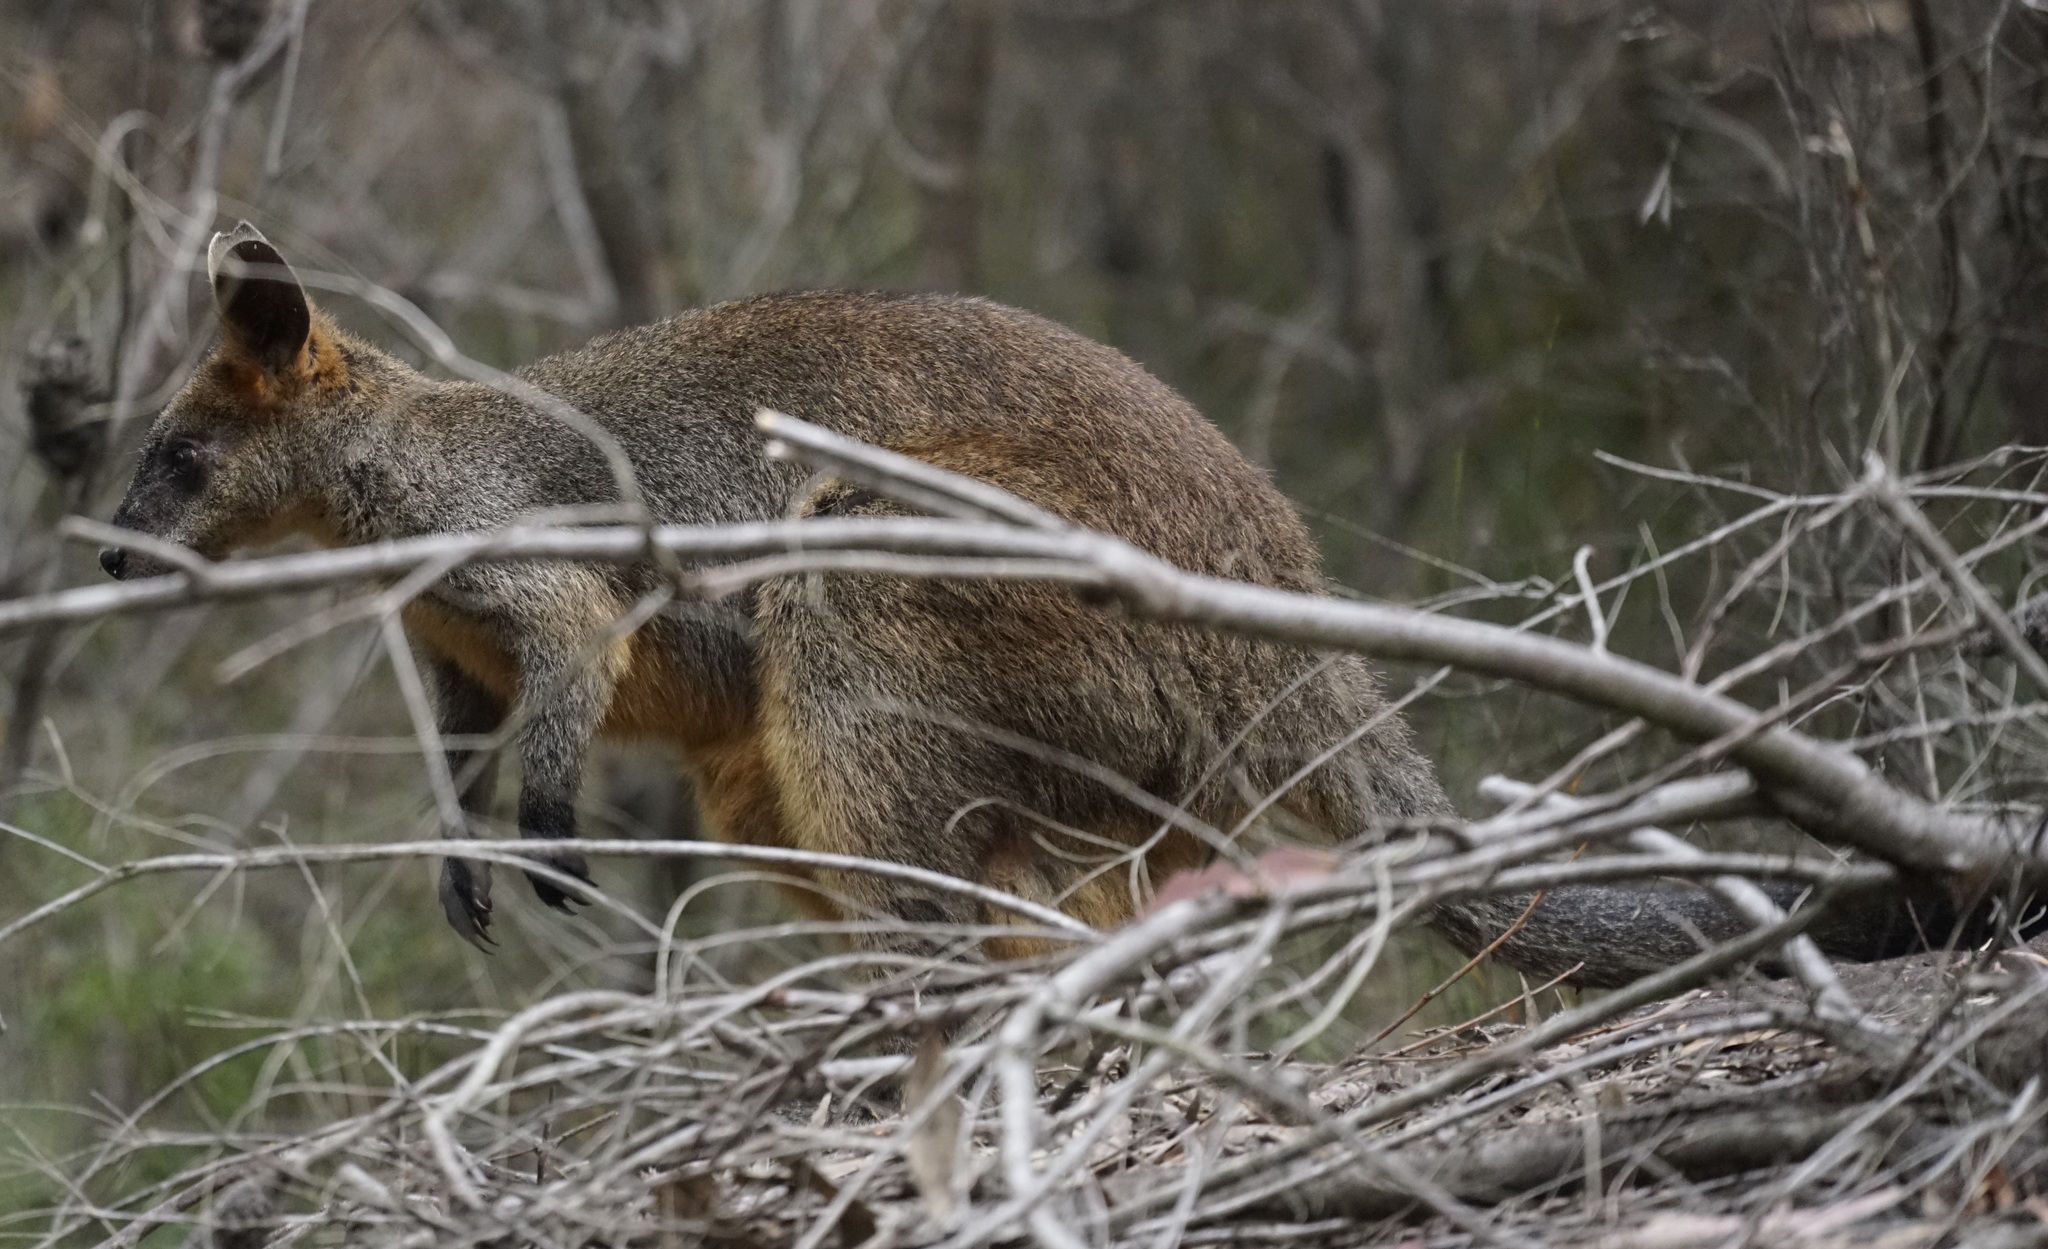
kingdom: Animalia
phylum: Chordata
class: Mammalia
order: Diprotodontia
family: Macropodidae
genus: Wallabia
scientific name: Wallabia bicolor
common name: Swamp wallaby
